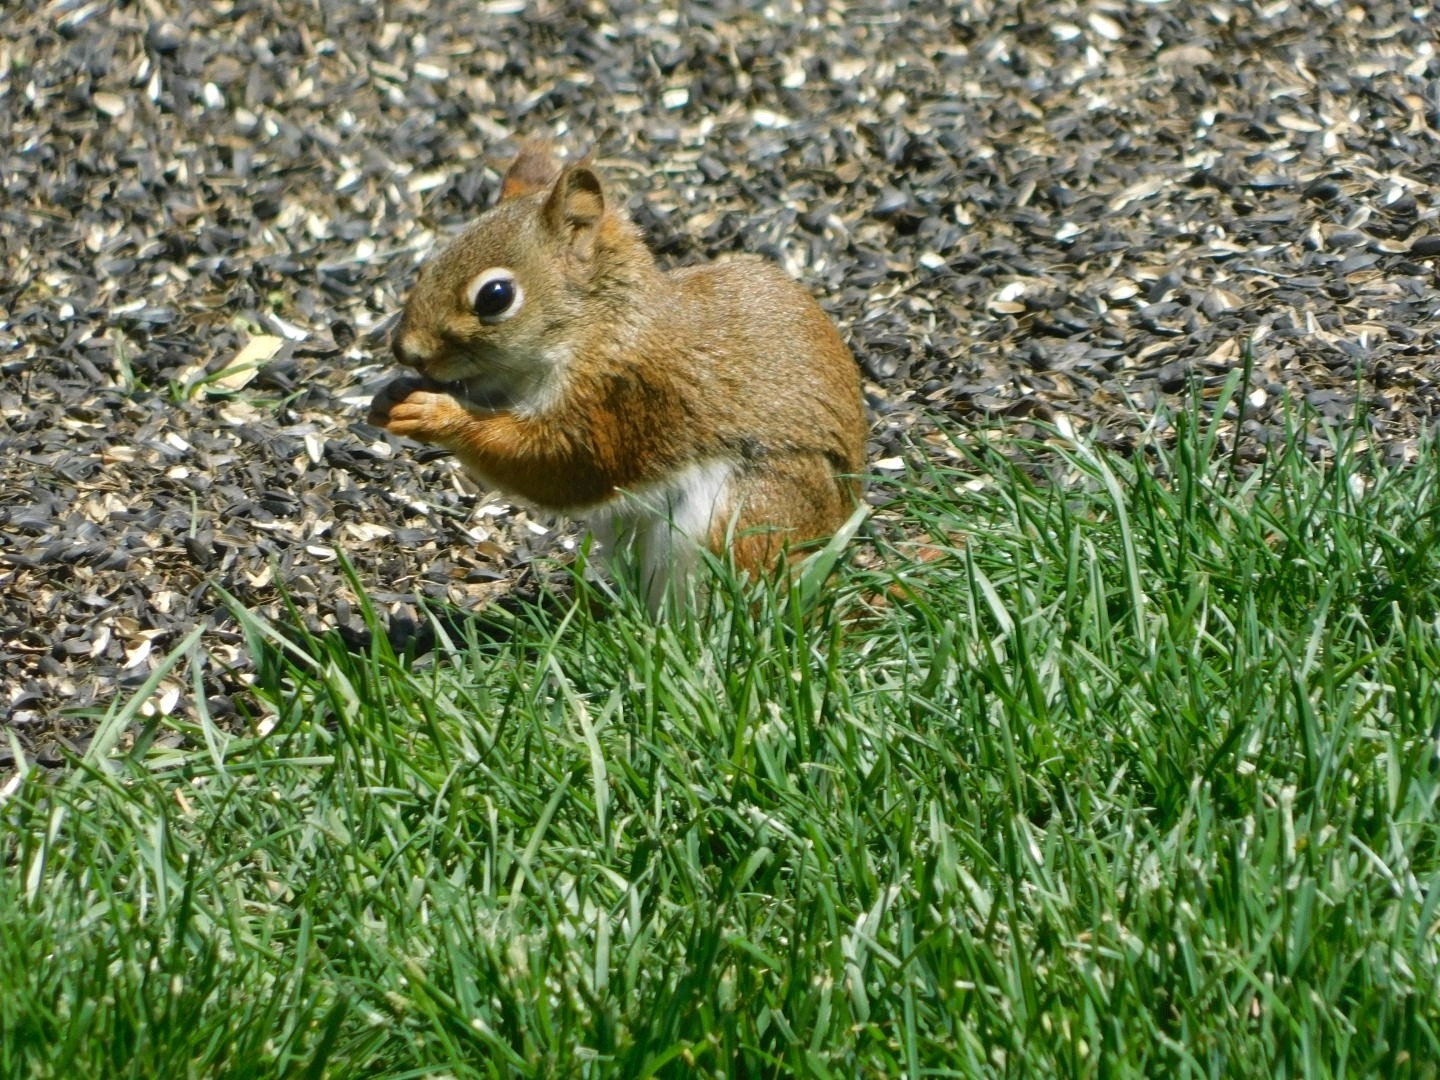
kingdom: Animalia
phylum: Chordata
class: Mammalia
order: Rodentia
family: Sciuridae
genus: Tamiasciurus
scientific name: Tamiasciurus hudsonicus
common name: Red squirrel
